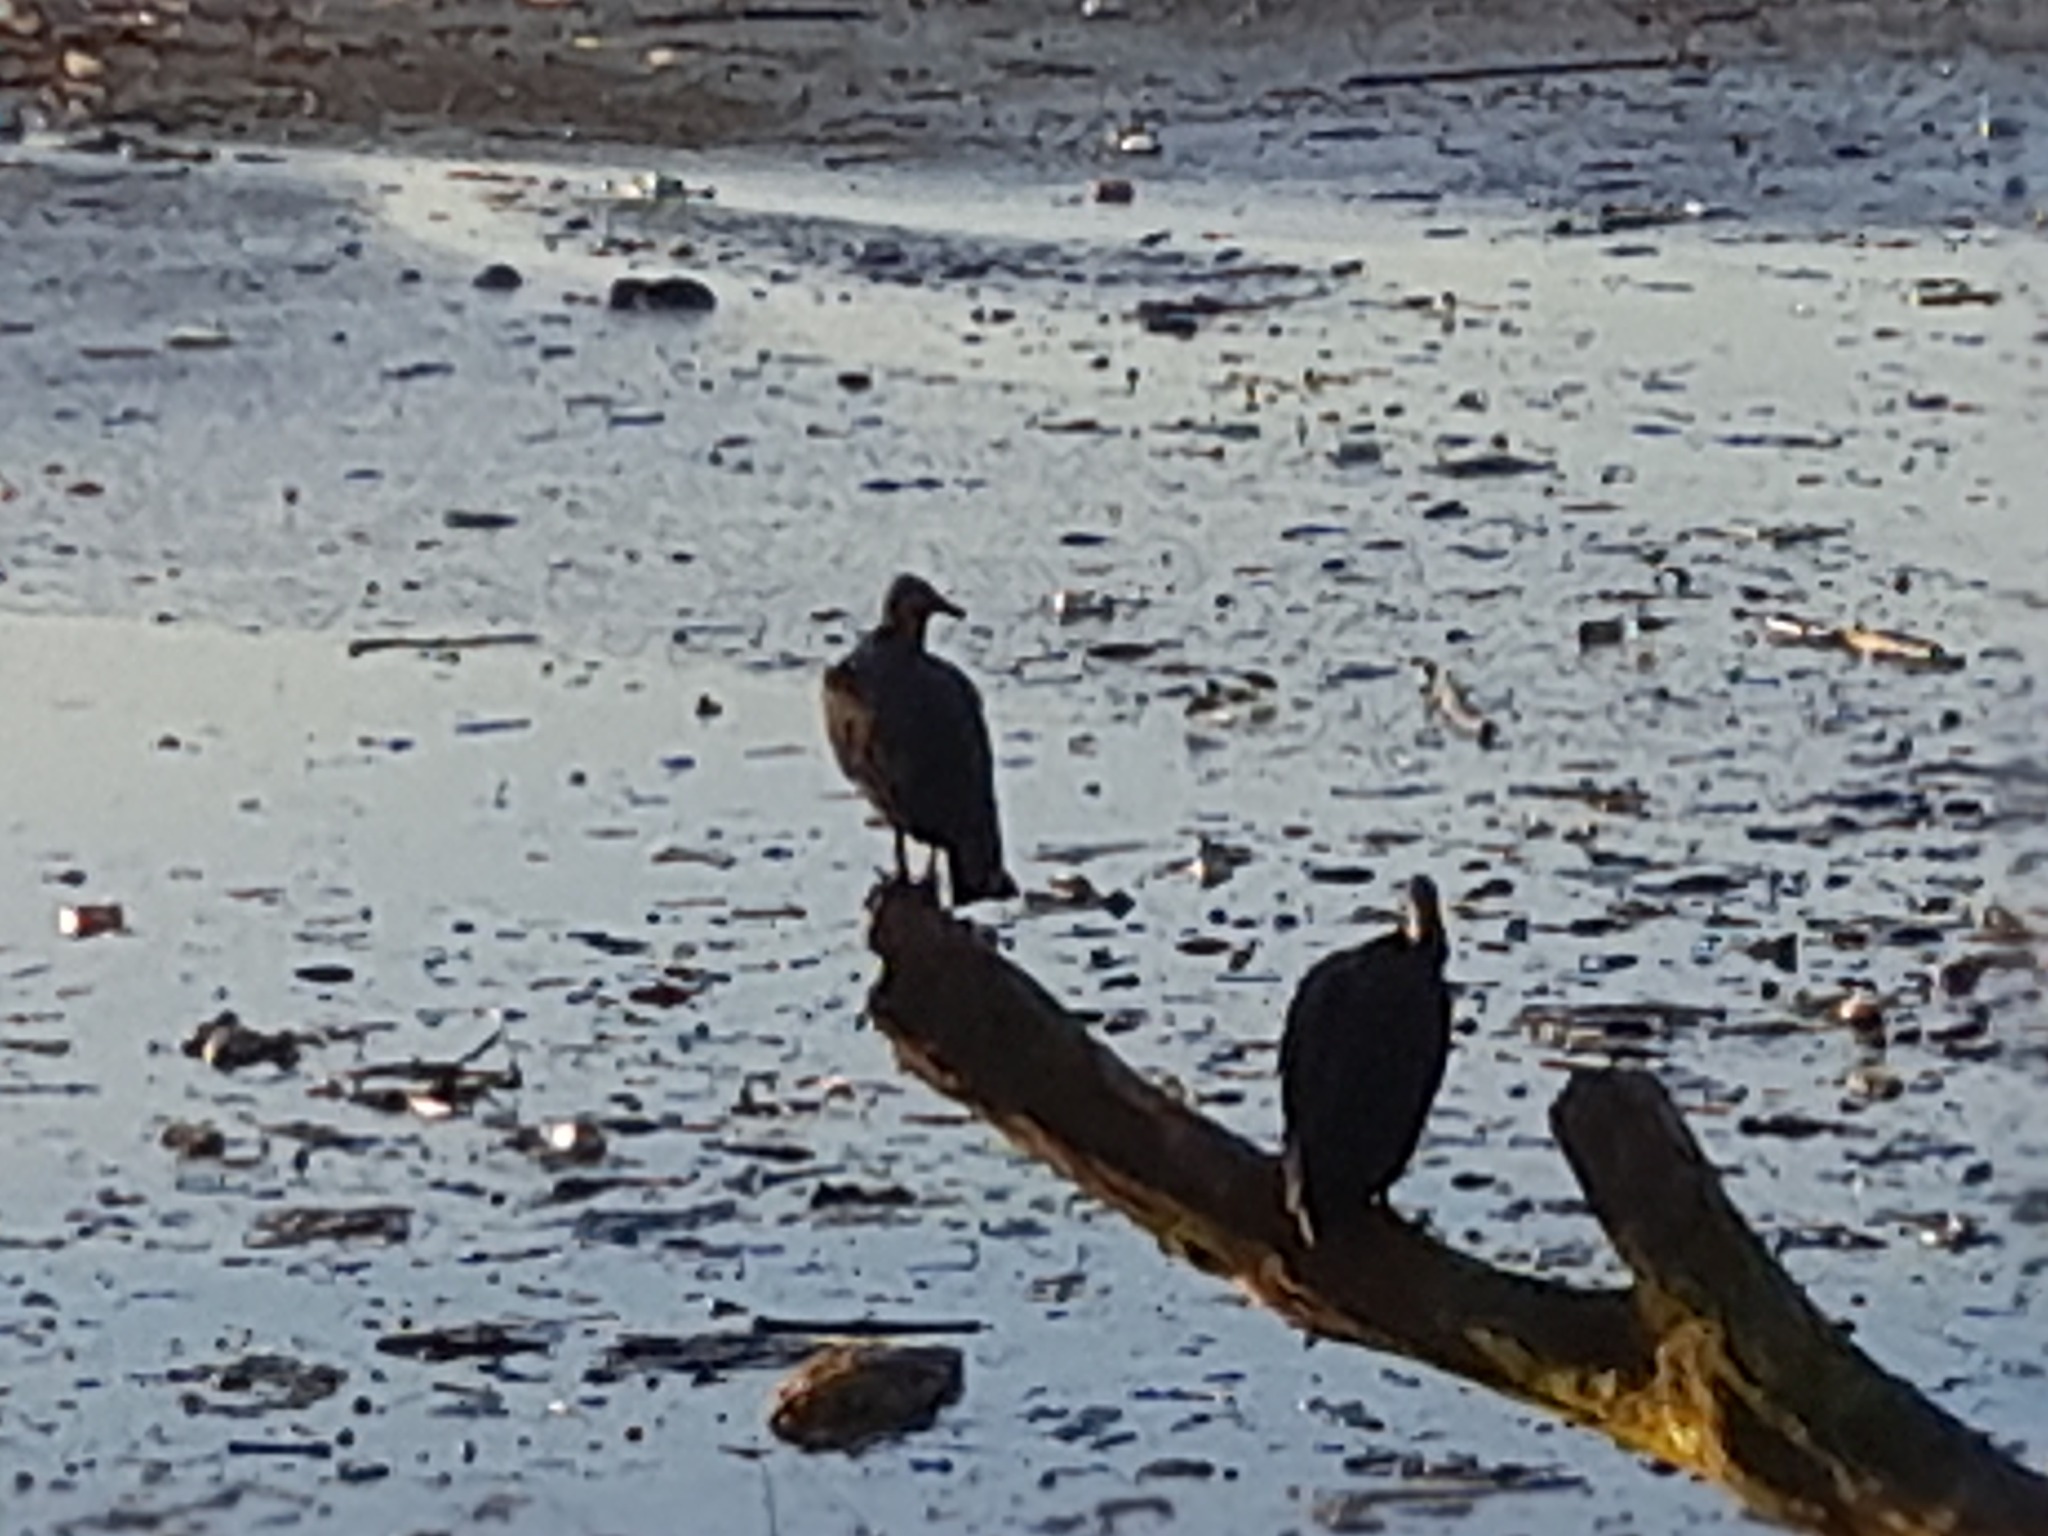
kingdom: Animalia
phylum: Chordata
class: Aves
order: Accipitriformes
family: Cathartidae
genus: Coragyps
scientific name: Coragyps atratus
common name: Black vulture
